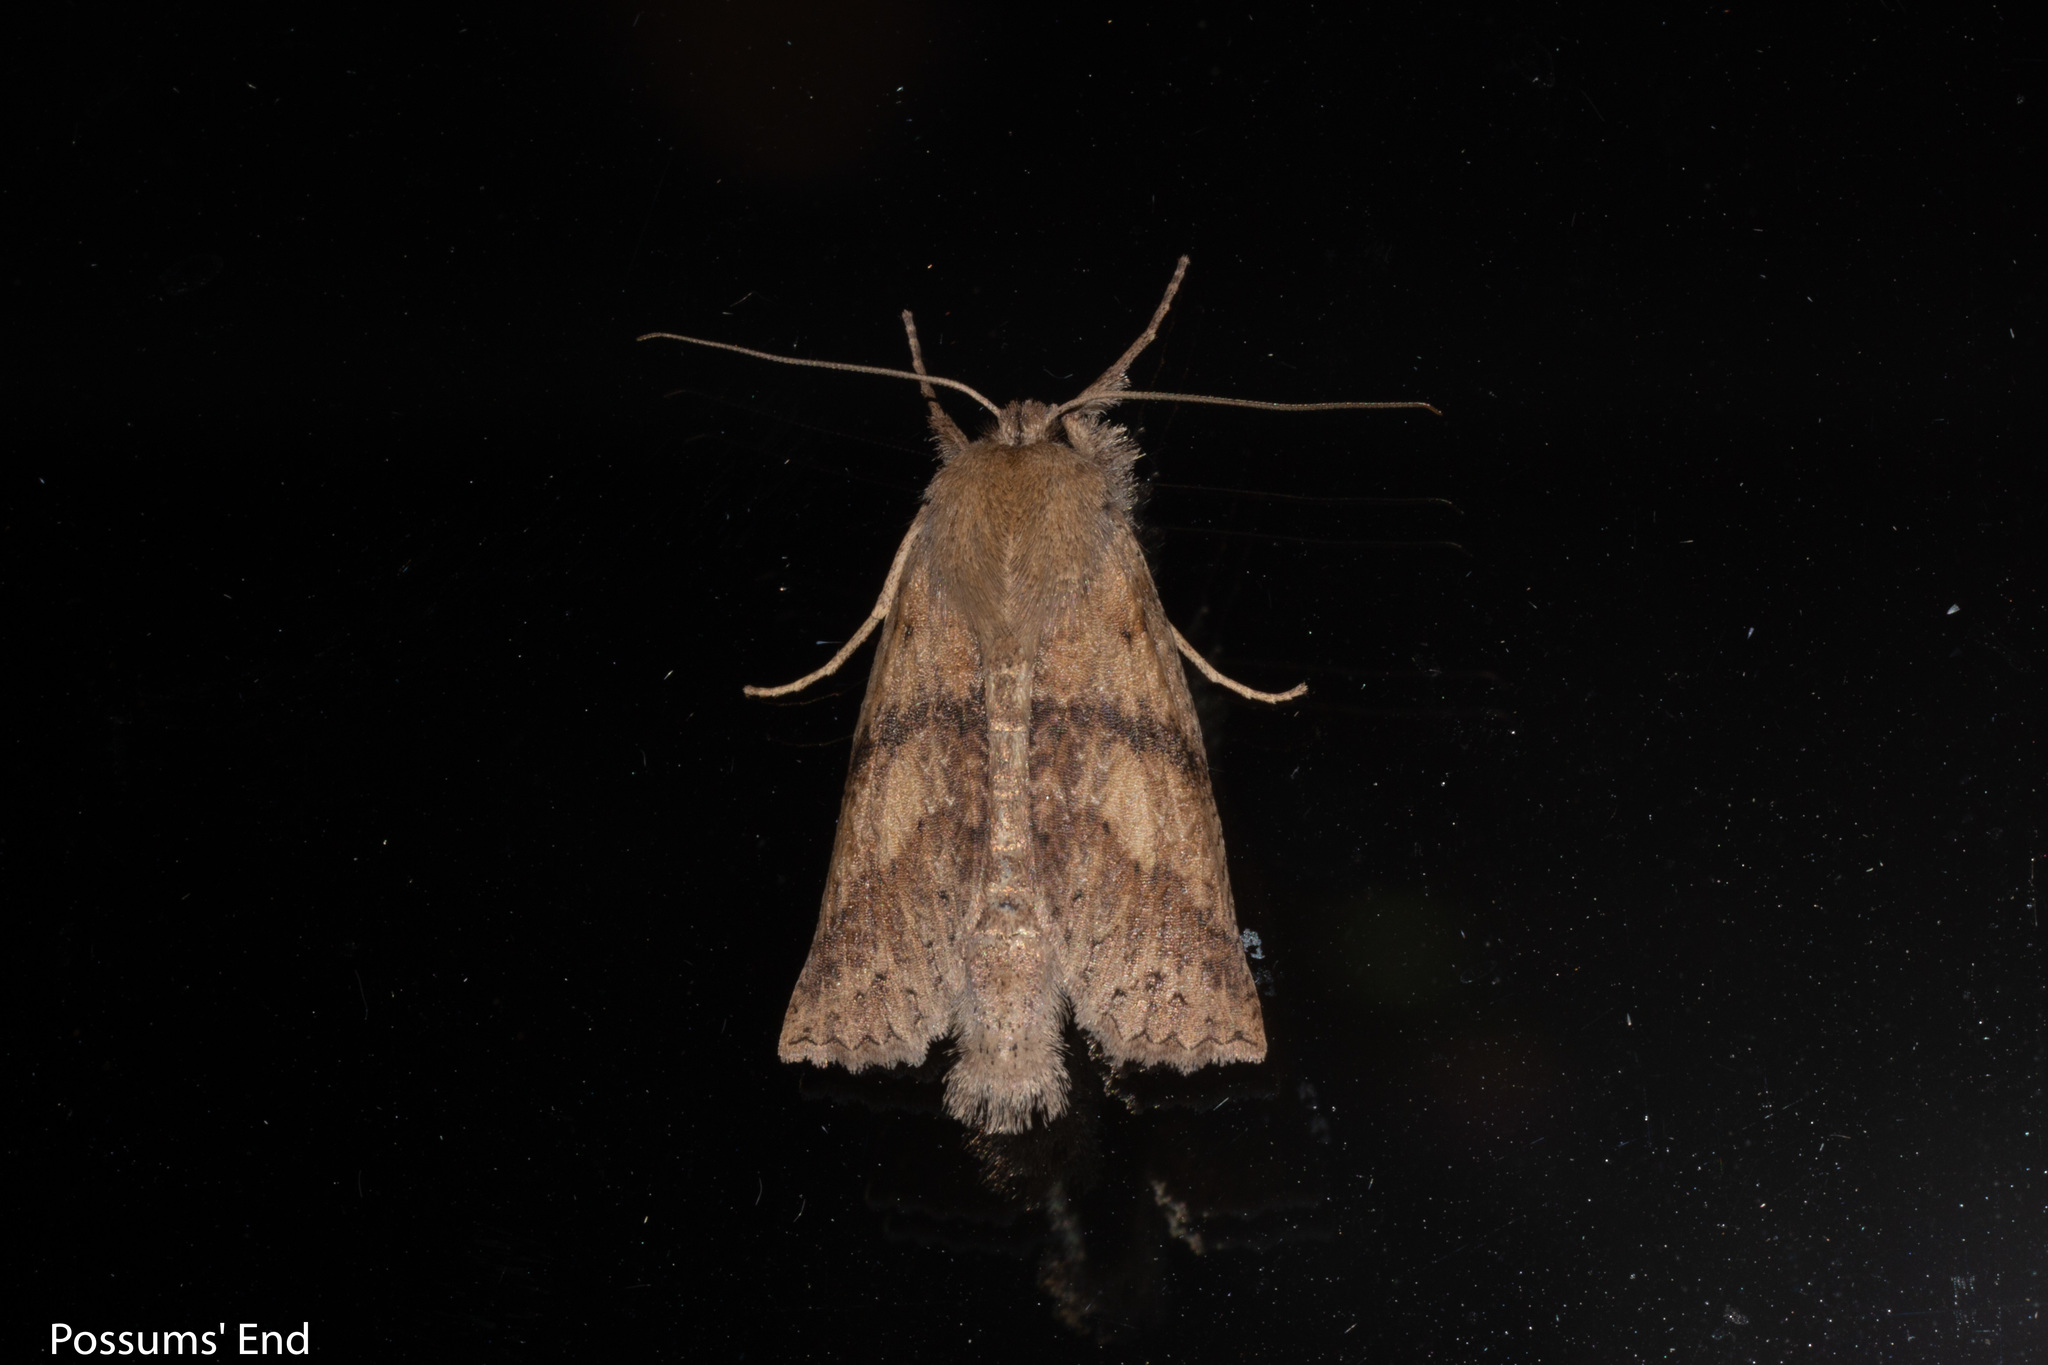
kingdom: Animalia
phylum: Arthropoda
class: Insecta
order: Lepidoptera
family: Geometridae
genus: Declana
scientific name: Declana leptomera
